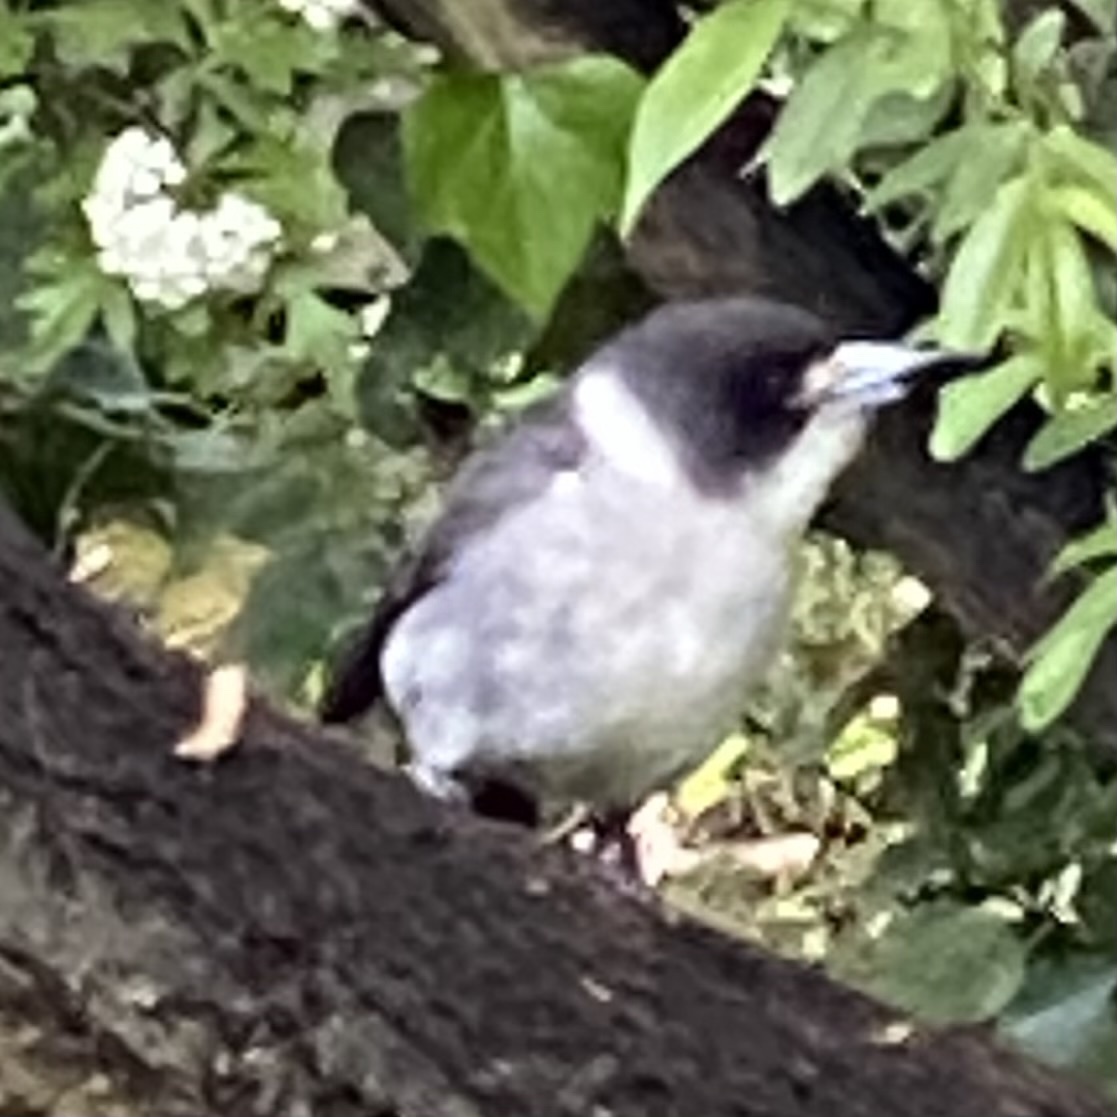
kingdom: Animalia
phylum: Chordata
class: Aves
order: Passeriformes
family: Cracticidae
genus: Cracticus
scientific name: Cracticus torquatus
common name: Grey butcherbird
